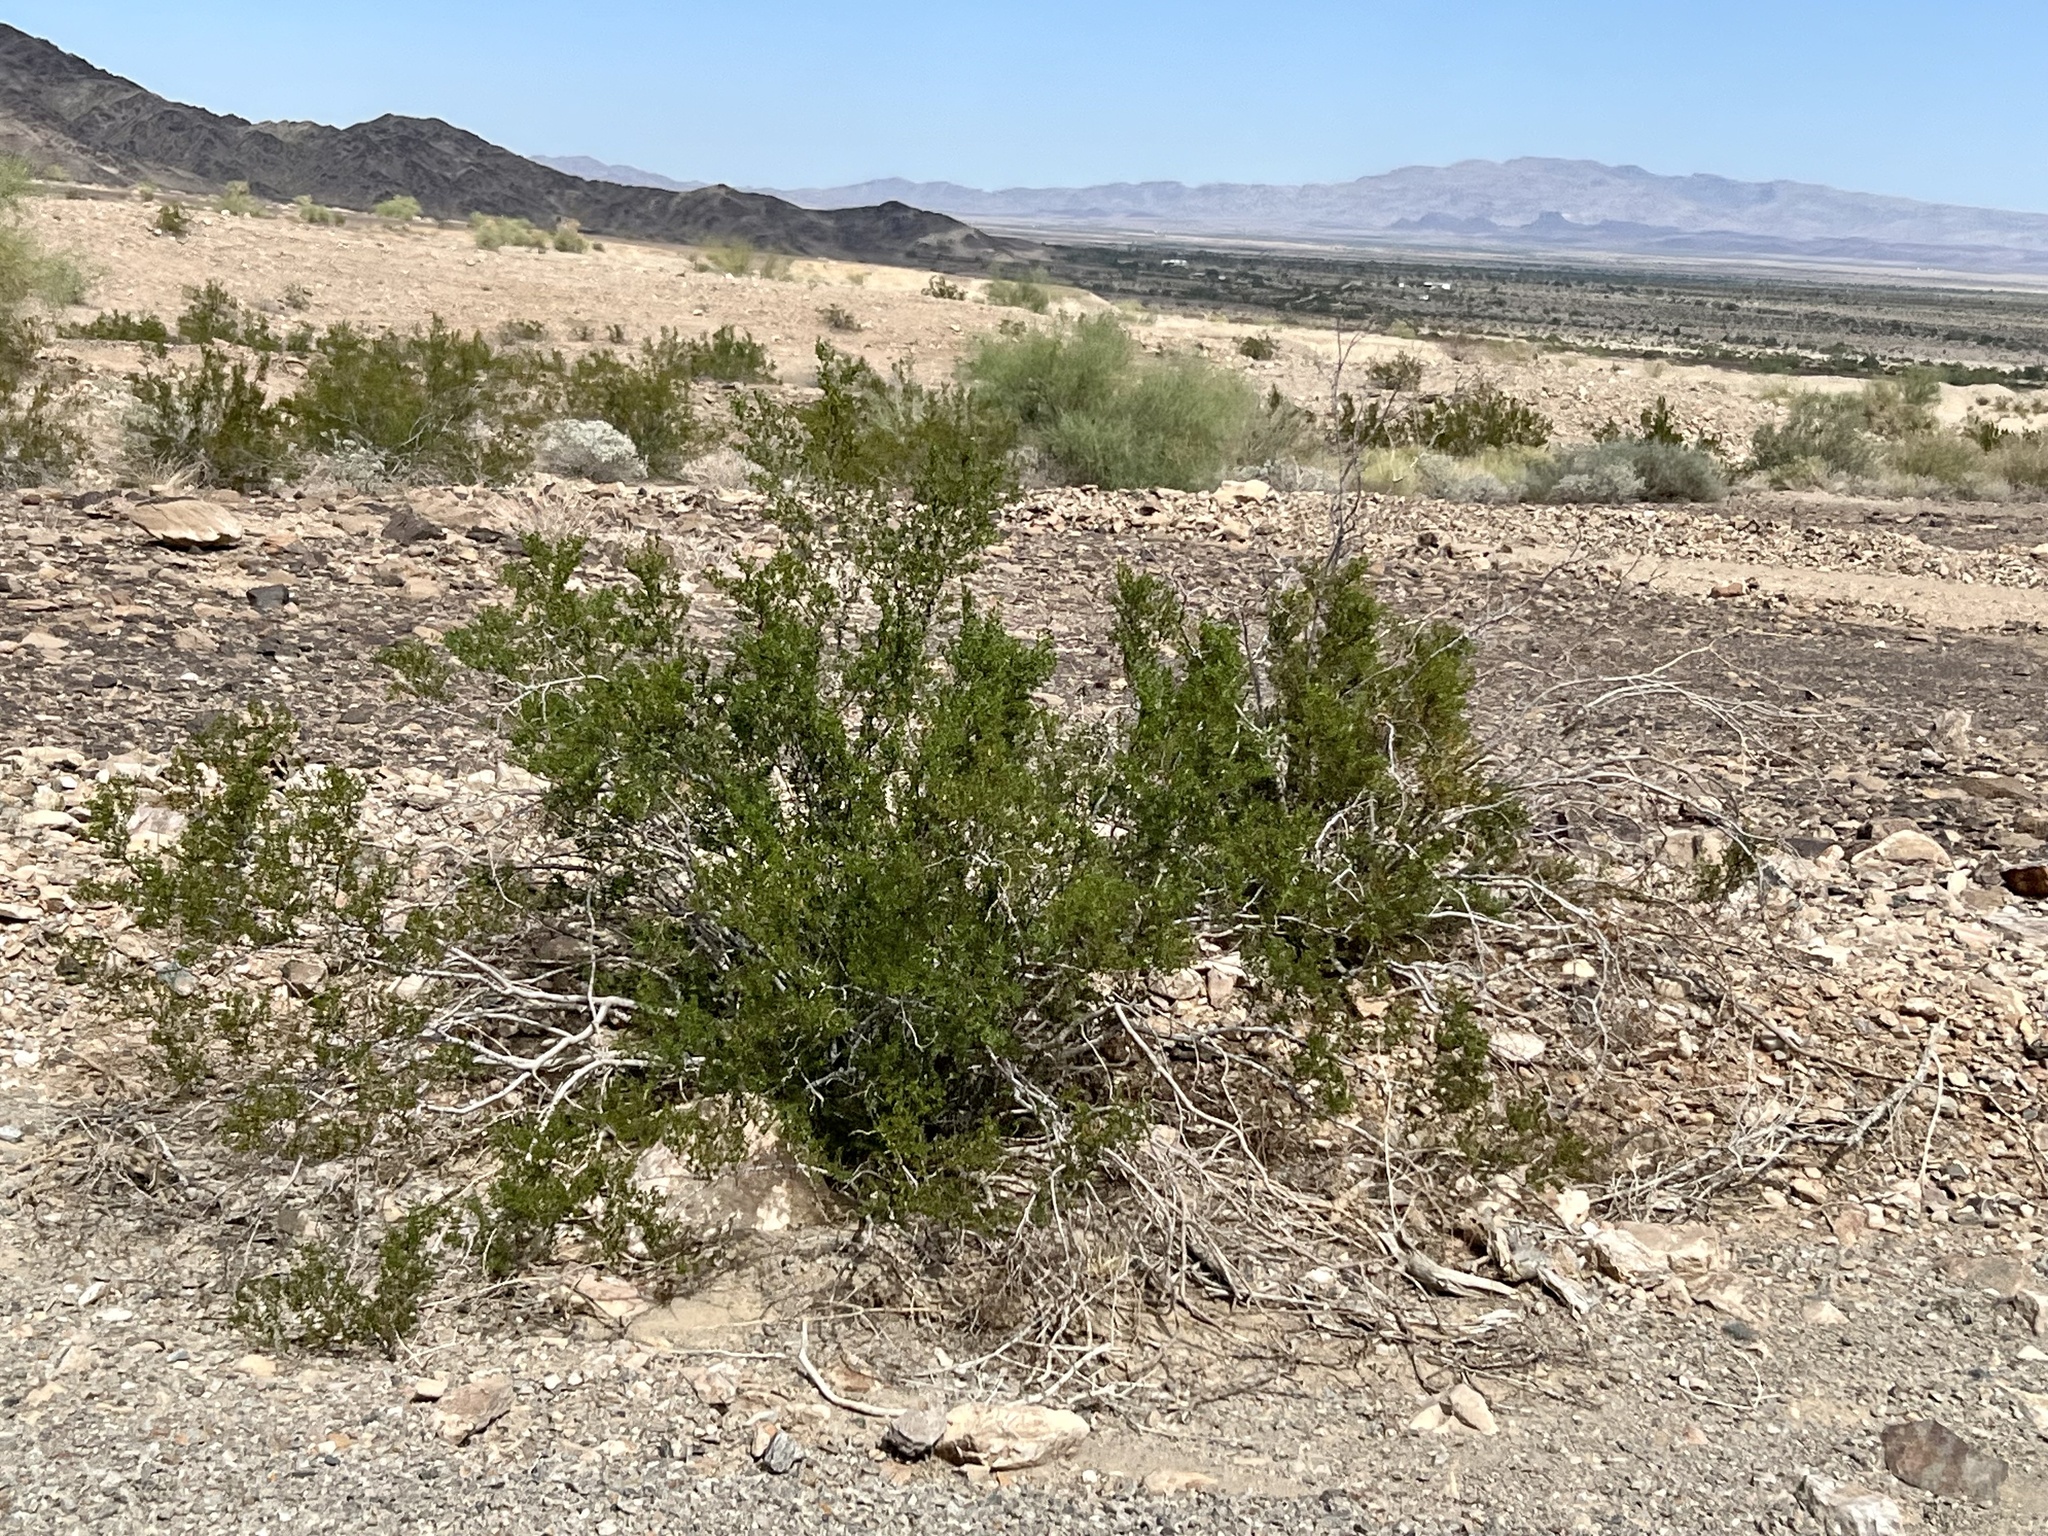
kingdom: Plantae
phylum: Tracheophyta
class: Magnoliopsida
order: Zygophyllales
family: Zygophyllaceae
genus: Larrea
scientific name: Larrea tridentata
